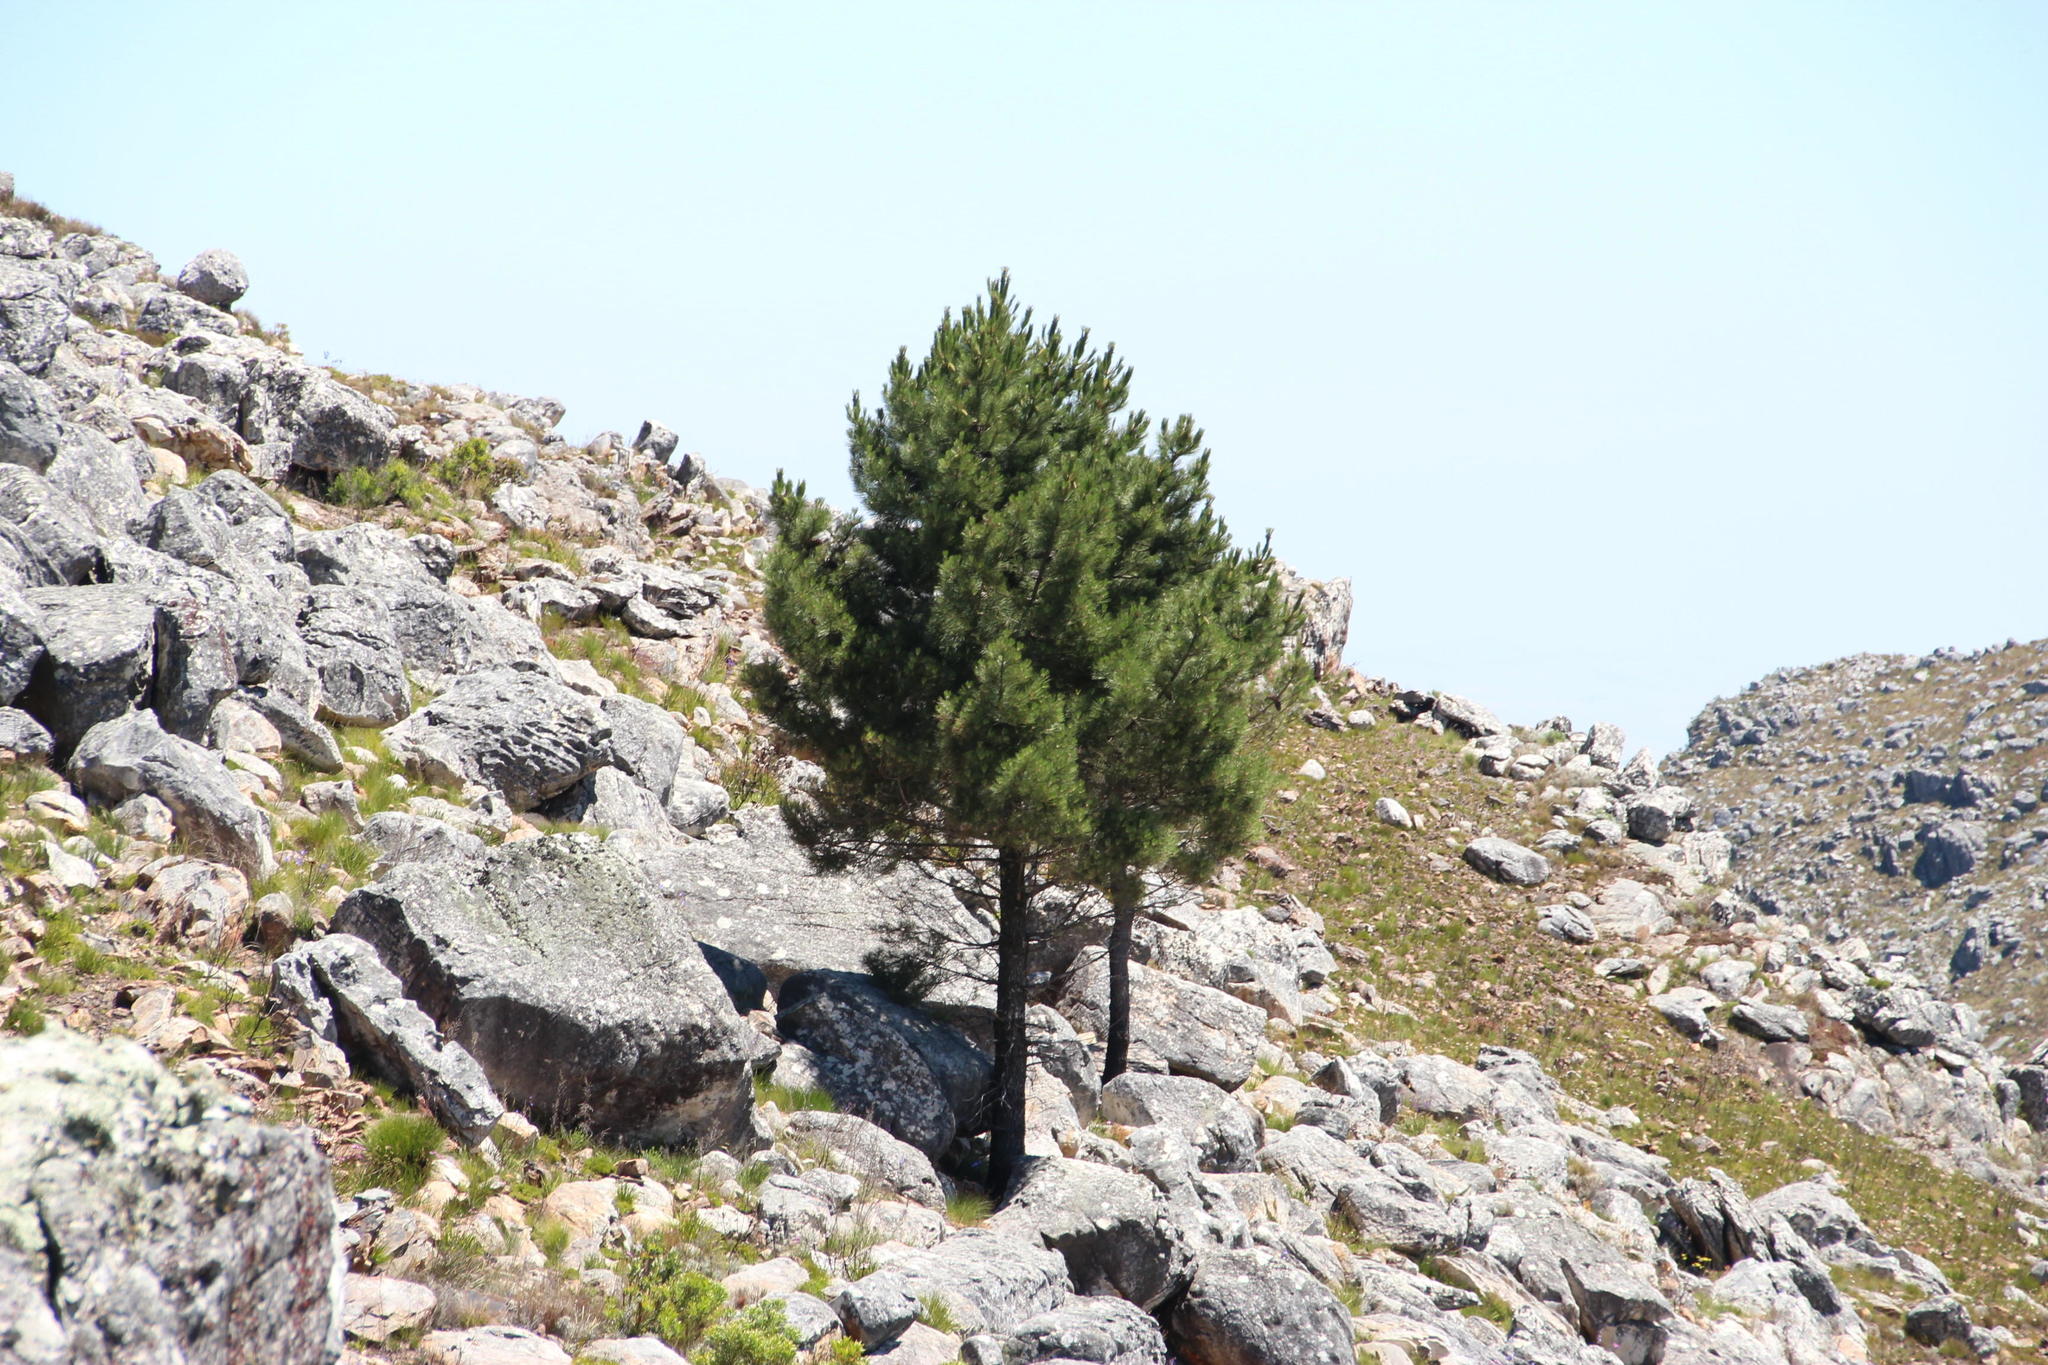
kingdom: Plantae
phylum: Tracheophyta
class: Pinopsida
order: Pinales
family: Pinaceae
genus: Pinus
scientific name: Pinus pinaster
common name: Maritime pine
